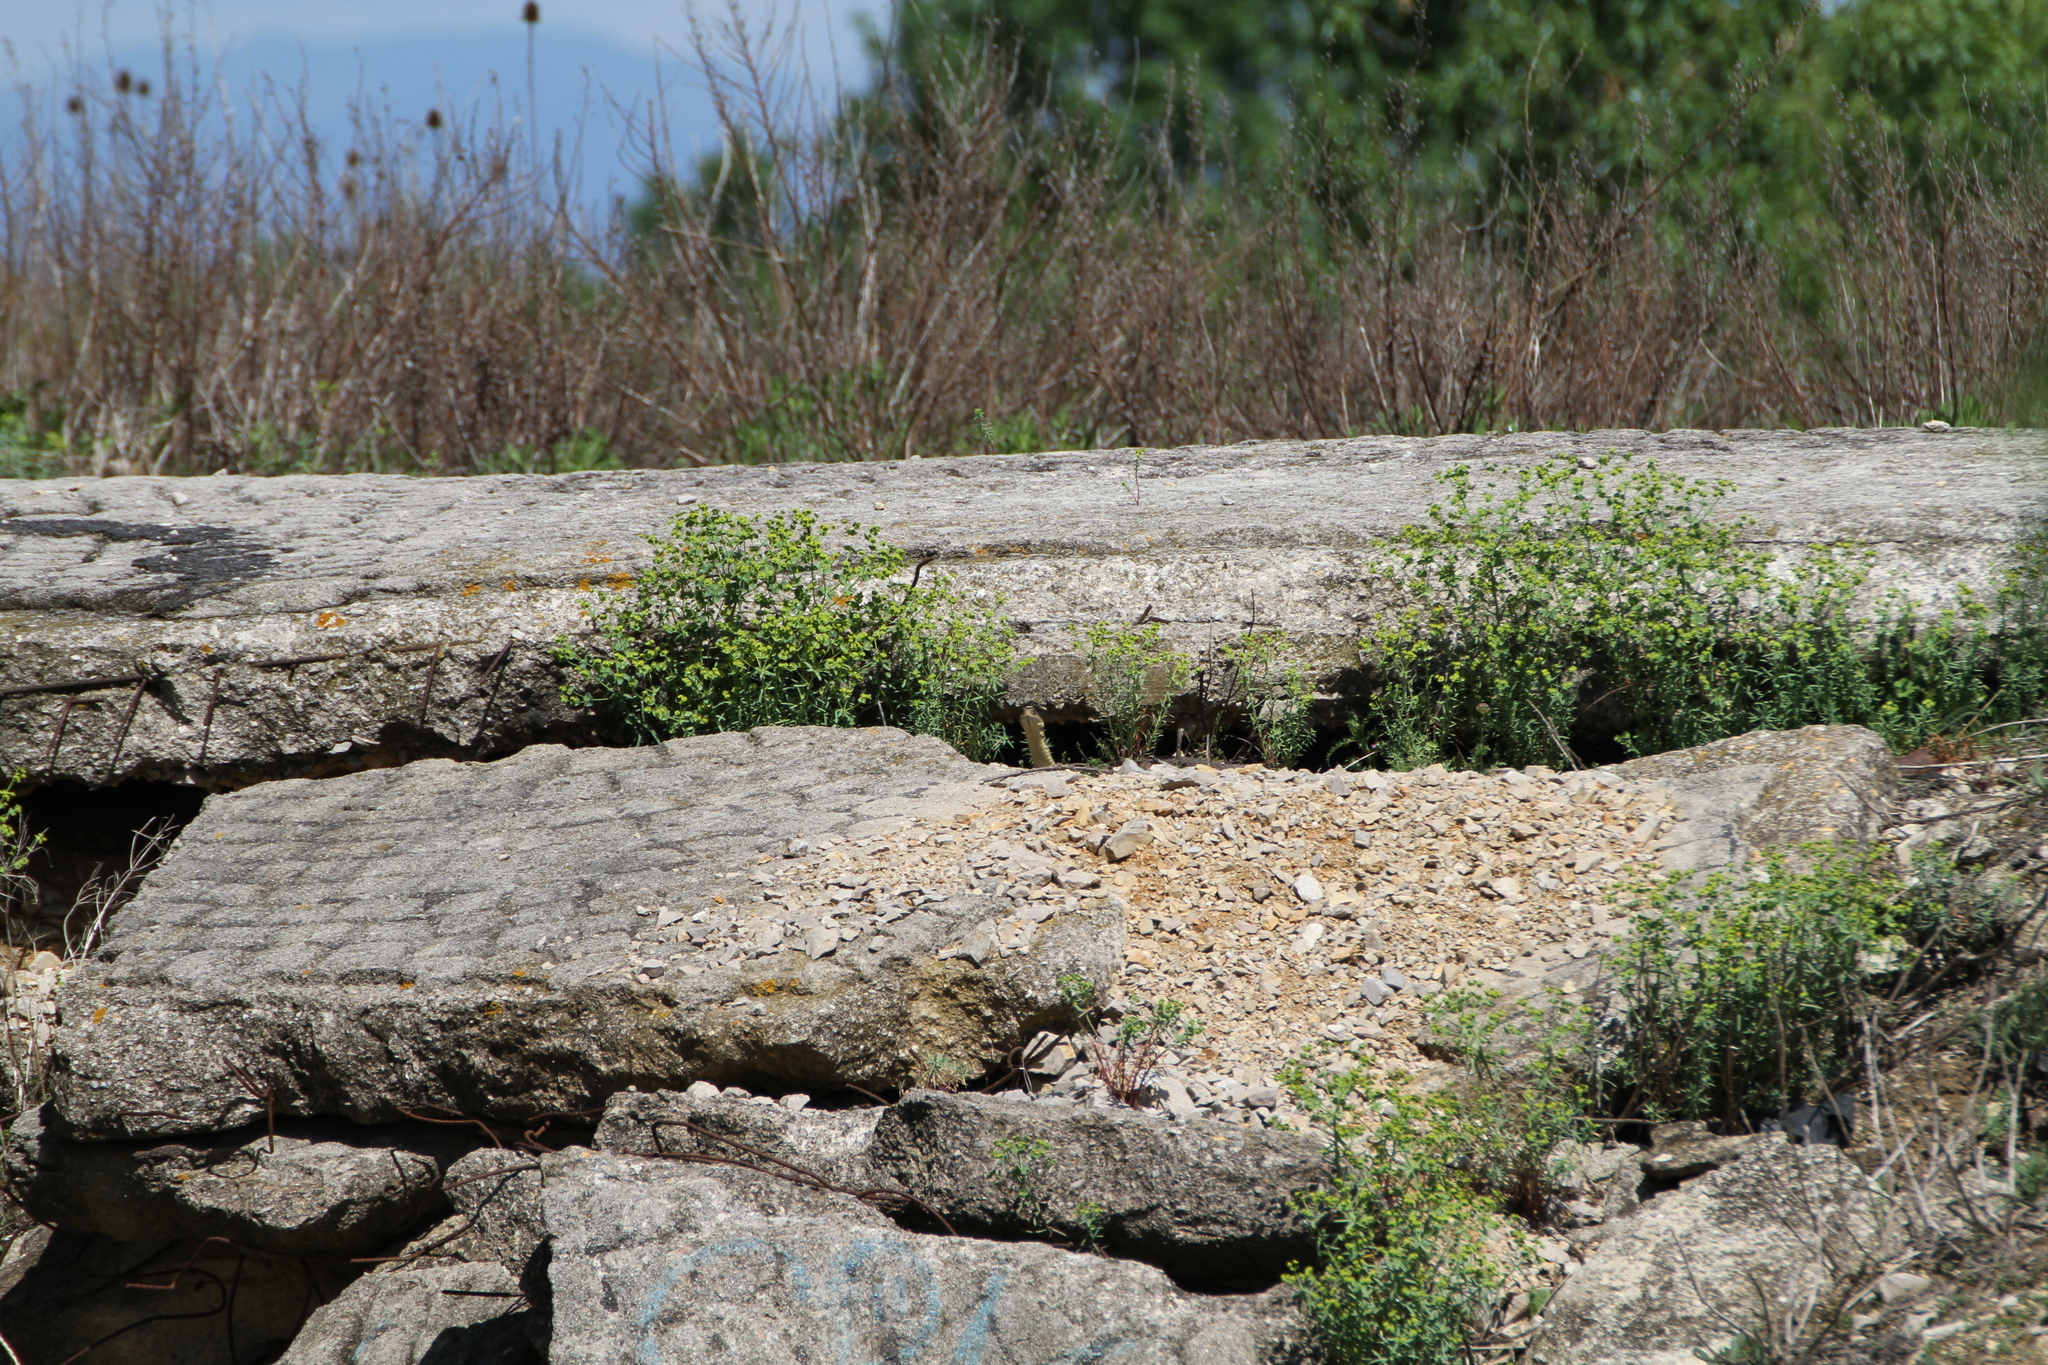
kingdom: Animalia
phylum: Chordata
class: Squamata
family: Psammophiidae
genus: Malpolon
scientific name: Malpolon monspessulanus
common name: Montpellier snake
